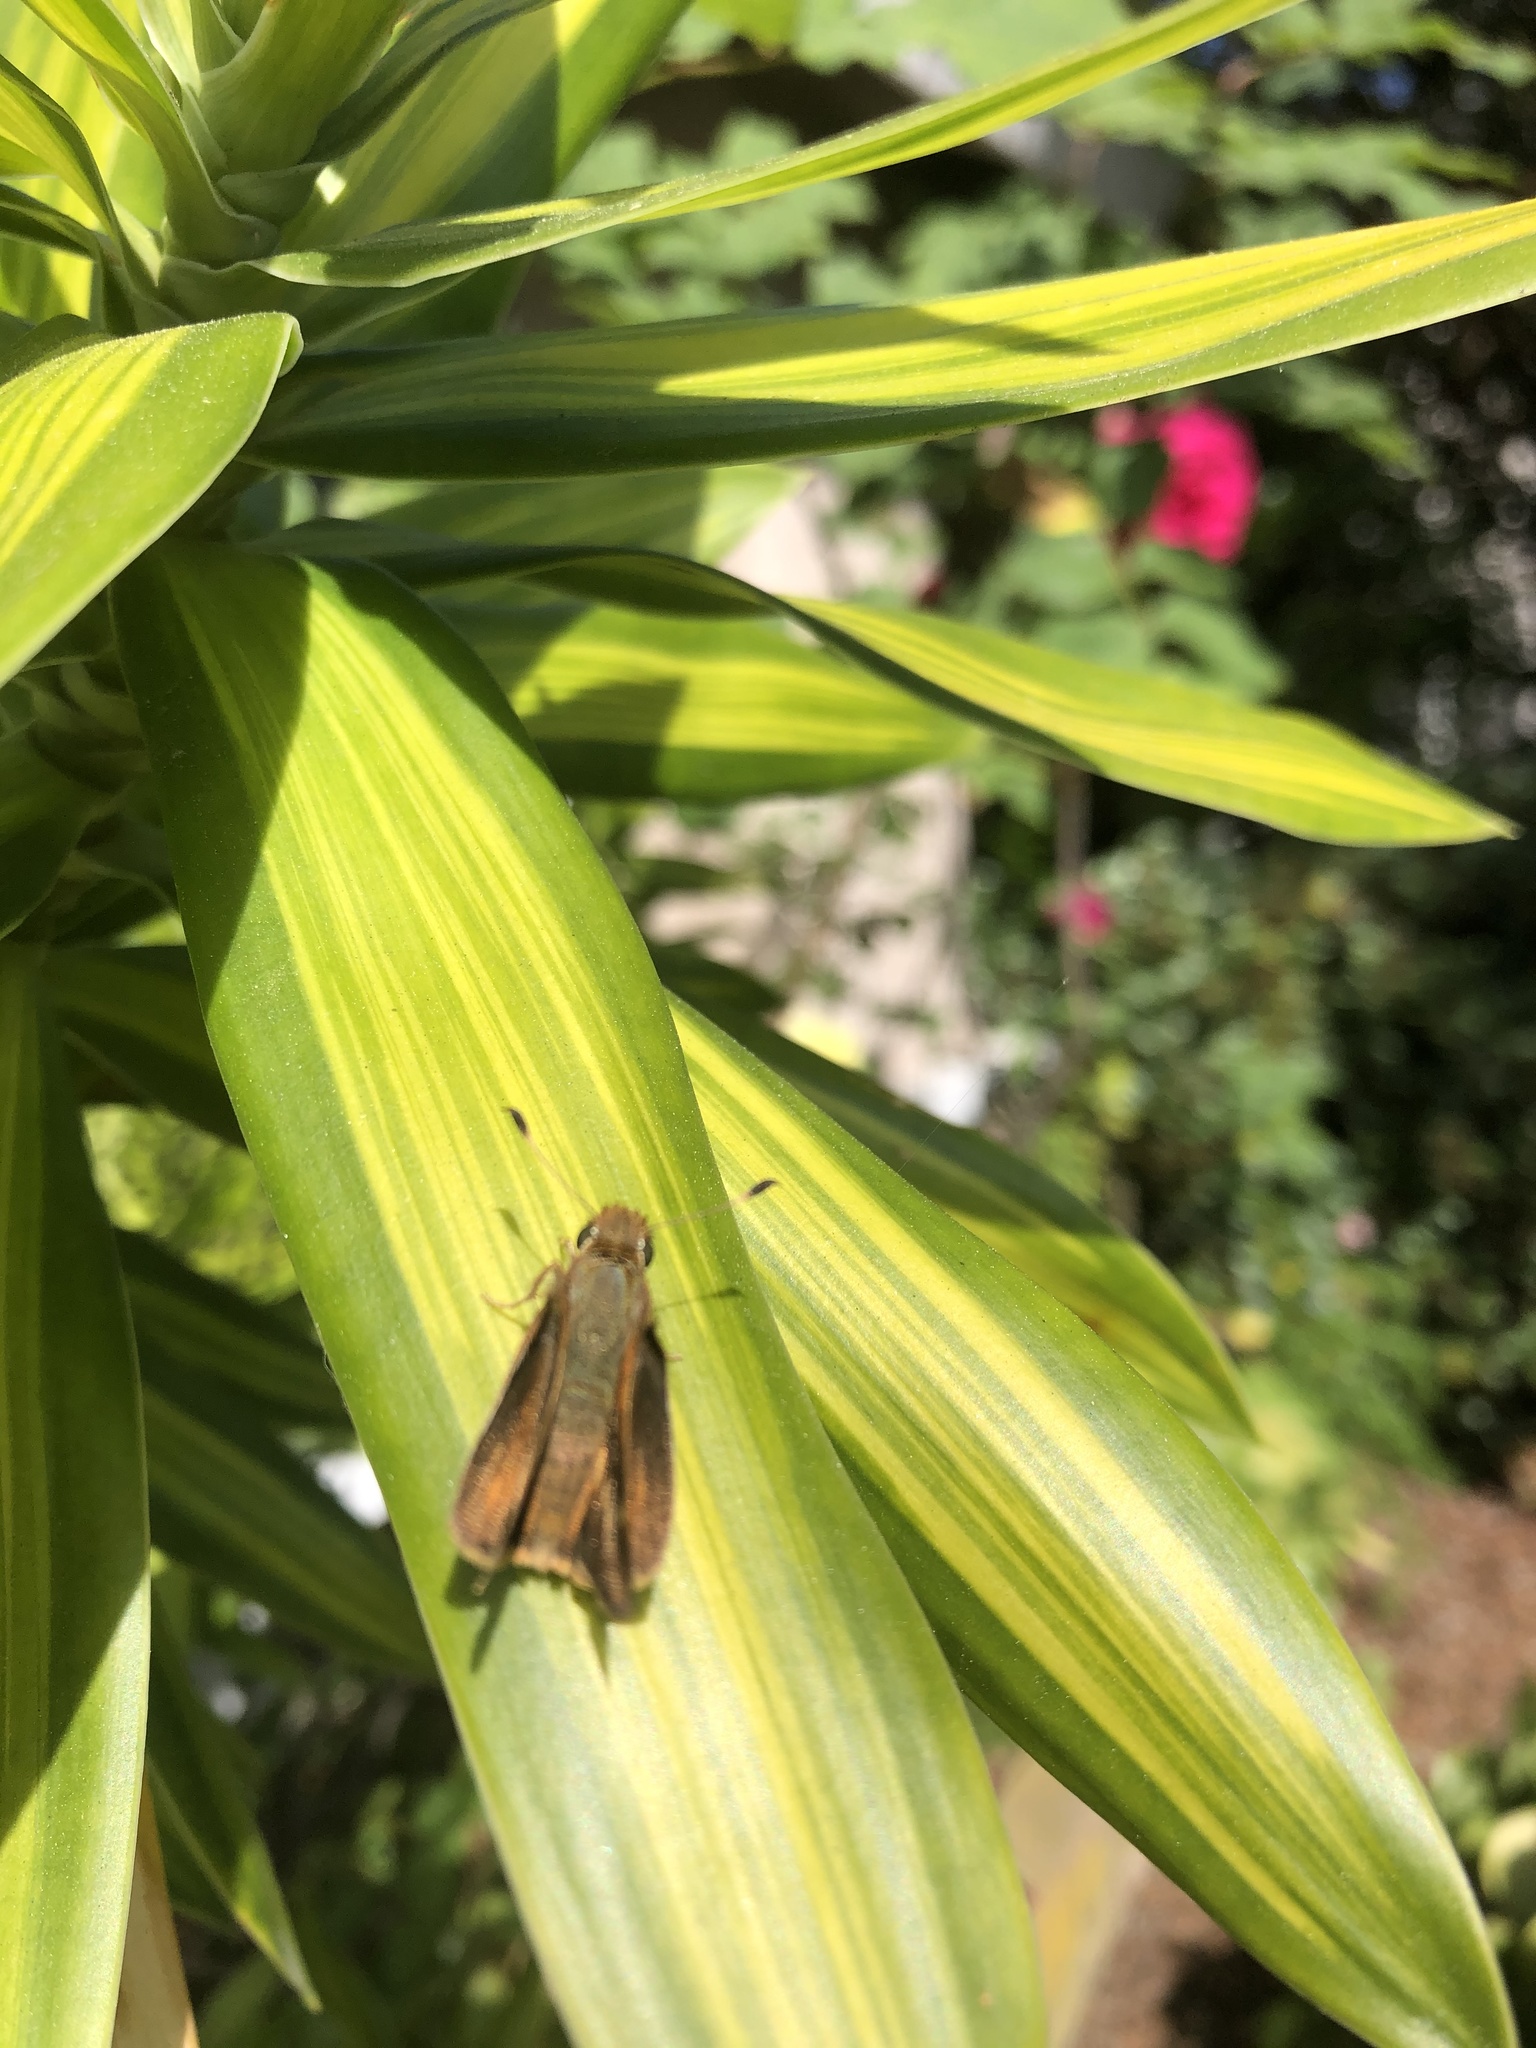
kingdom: Animalia
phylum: Arthropoda
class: Insecta
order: Lepidoptera
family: Hesperiidae
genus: Lon
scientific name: Lon melane
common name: Umber skipper
